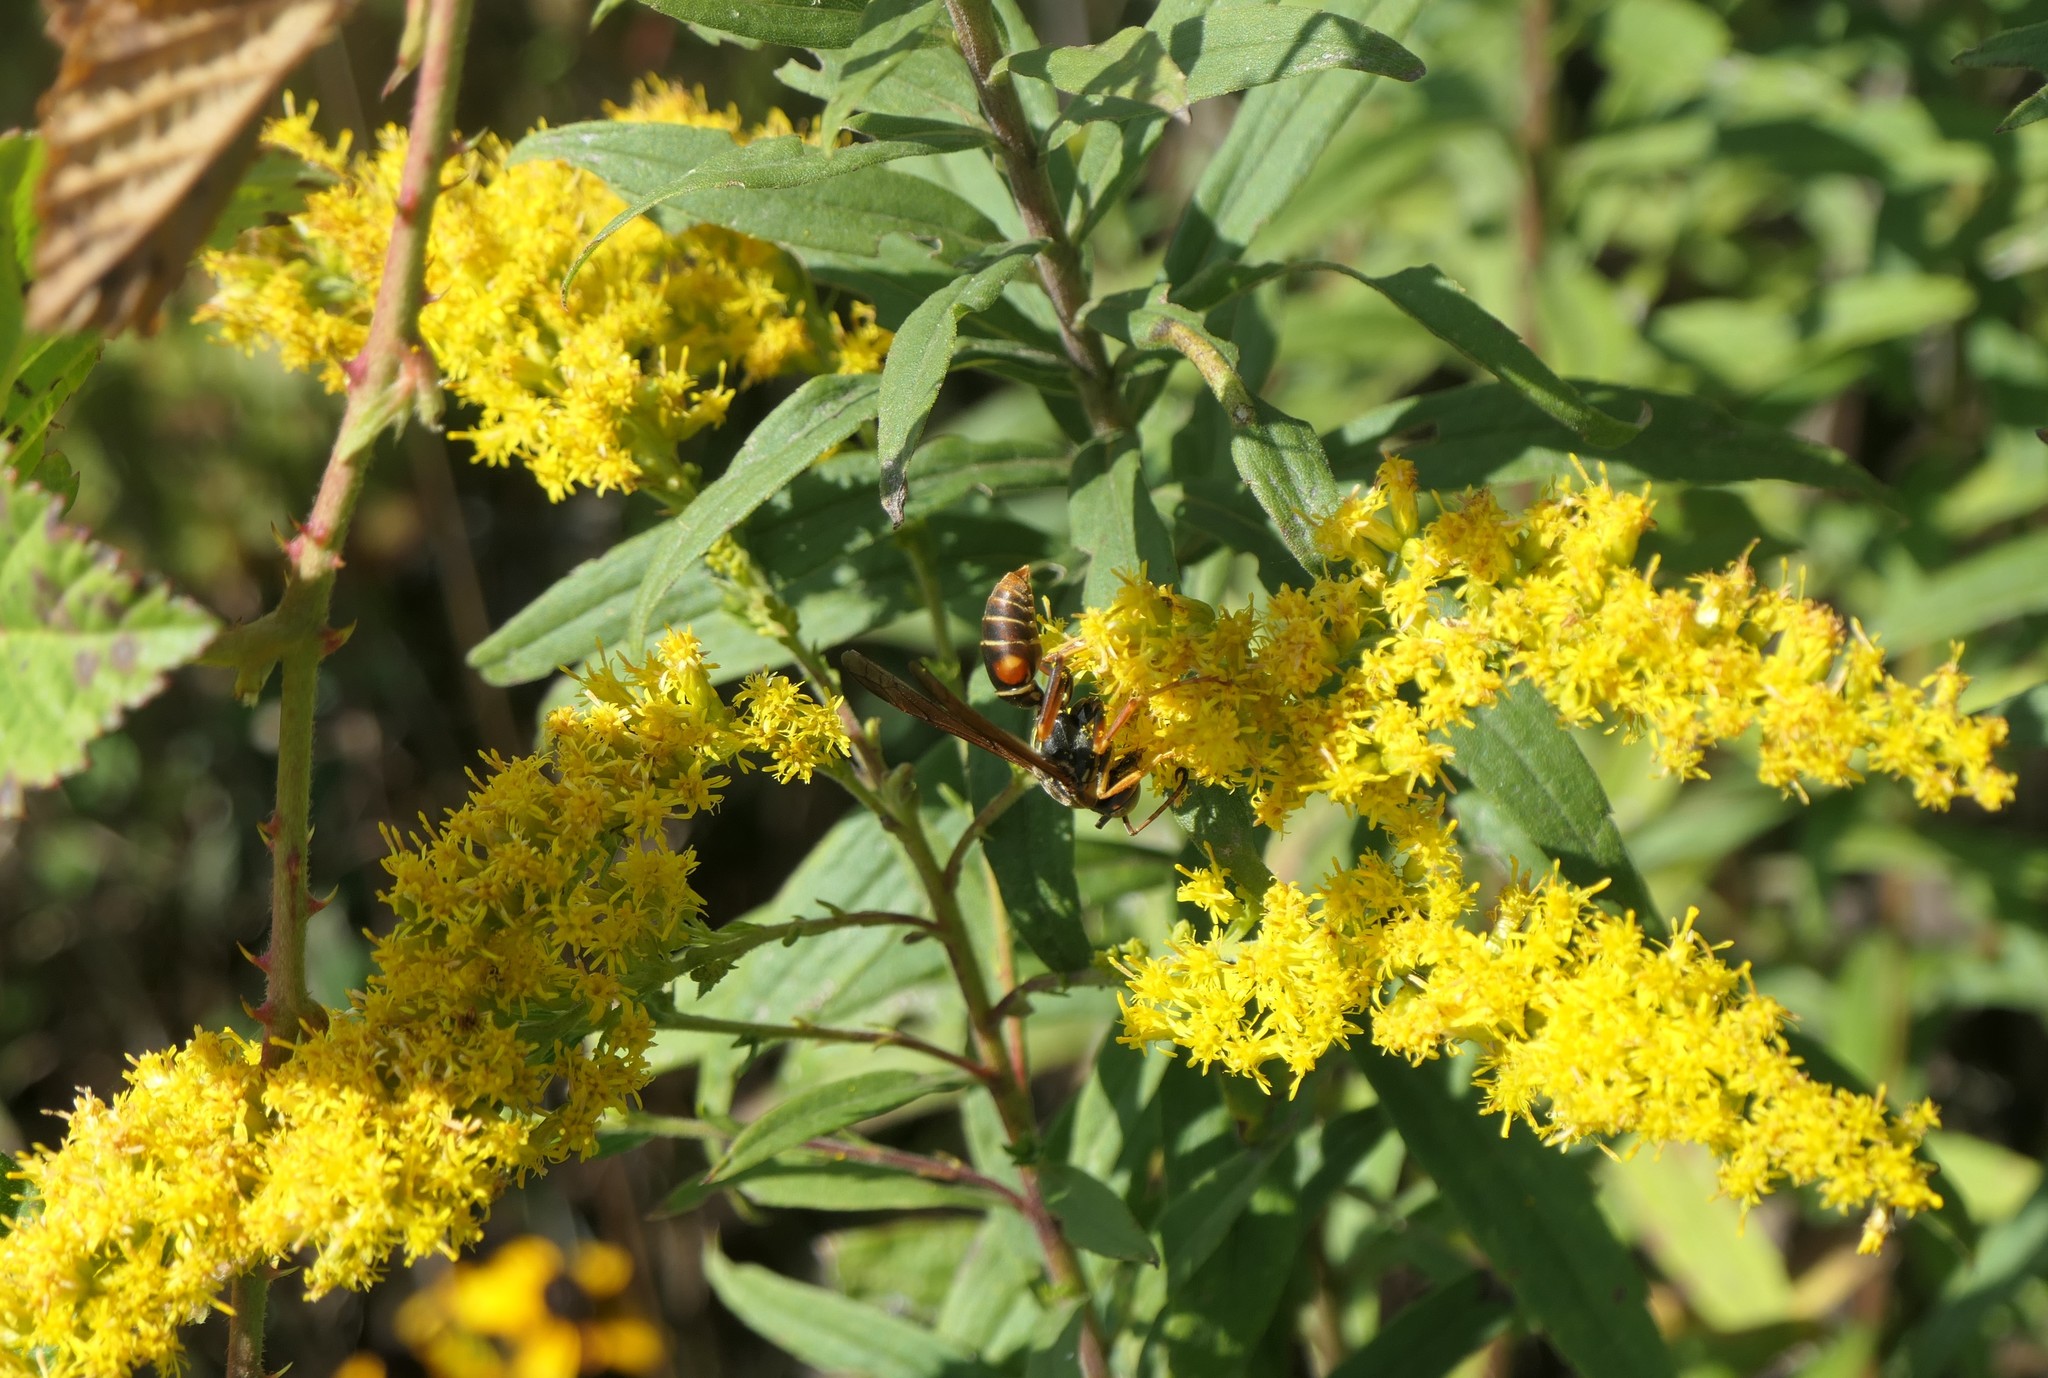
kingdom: Animalia
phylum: Arthropoda
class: Insecta
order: Hymenoptera
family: Eumenidae
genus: Polistes
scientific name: Polistes fuscatus
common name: Dark paper wasp
